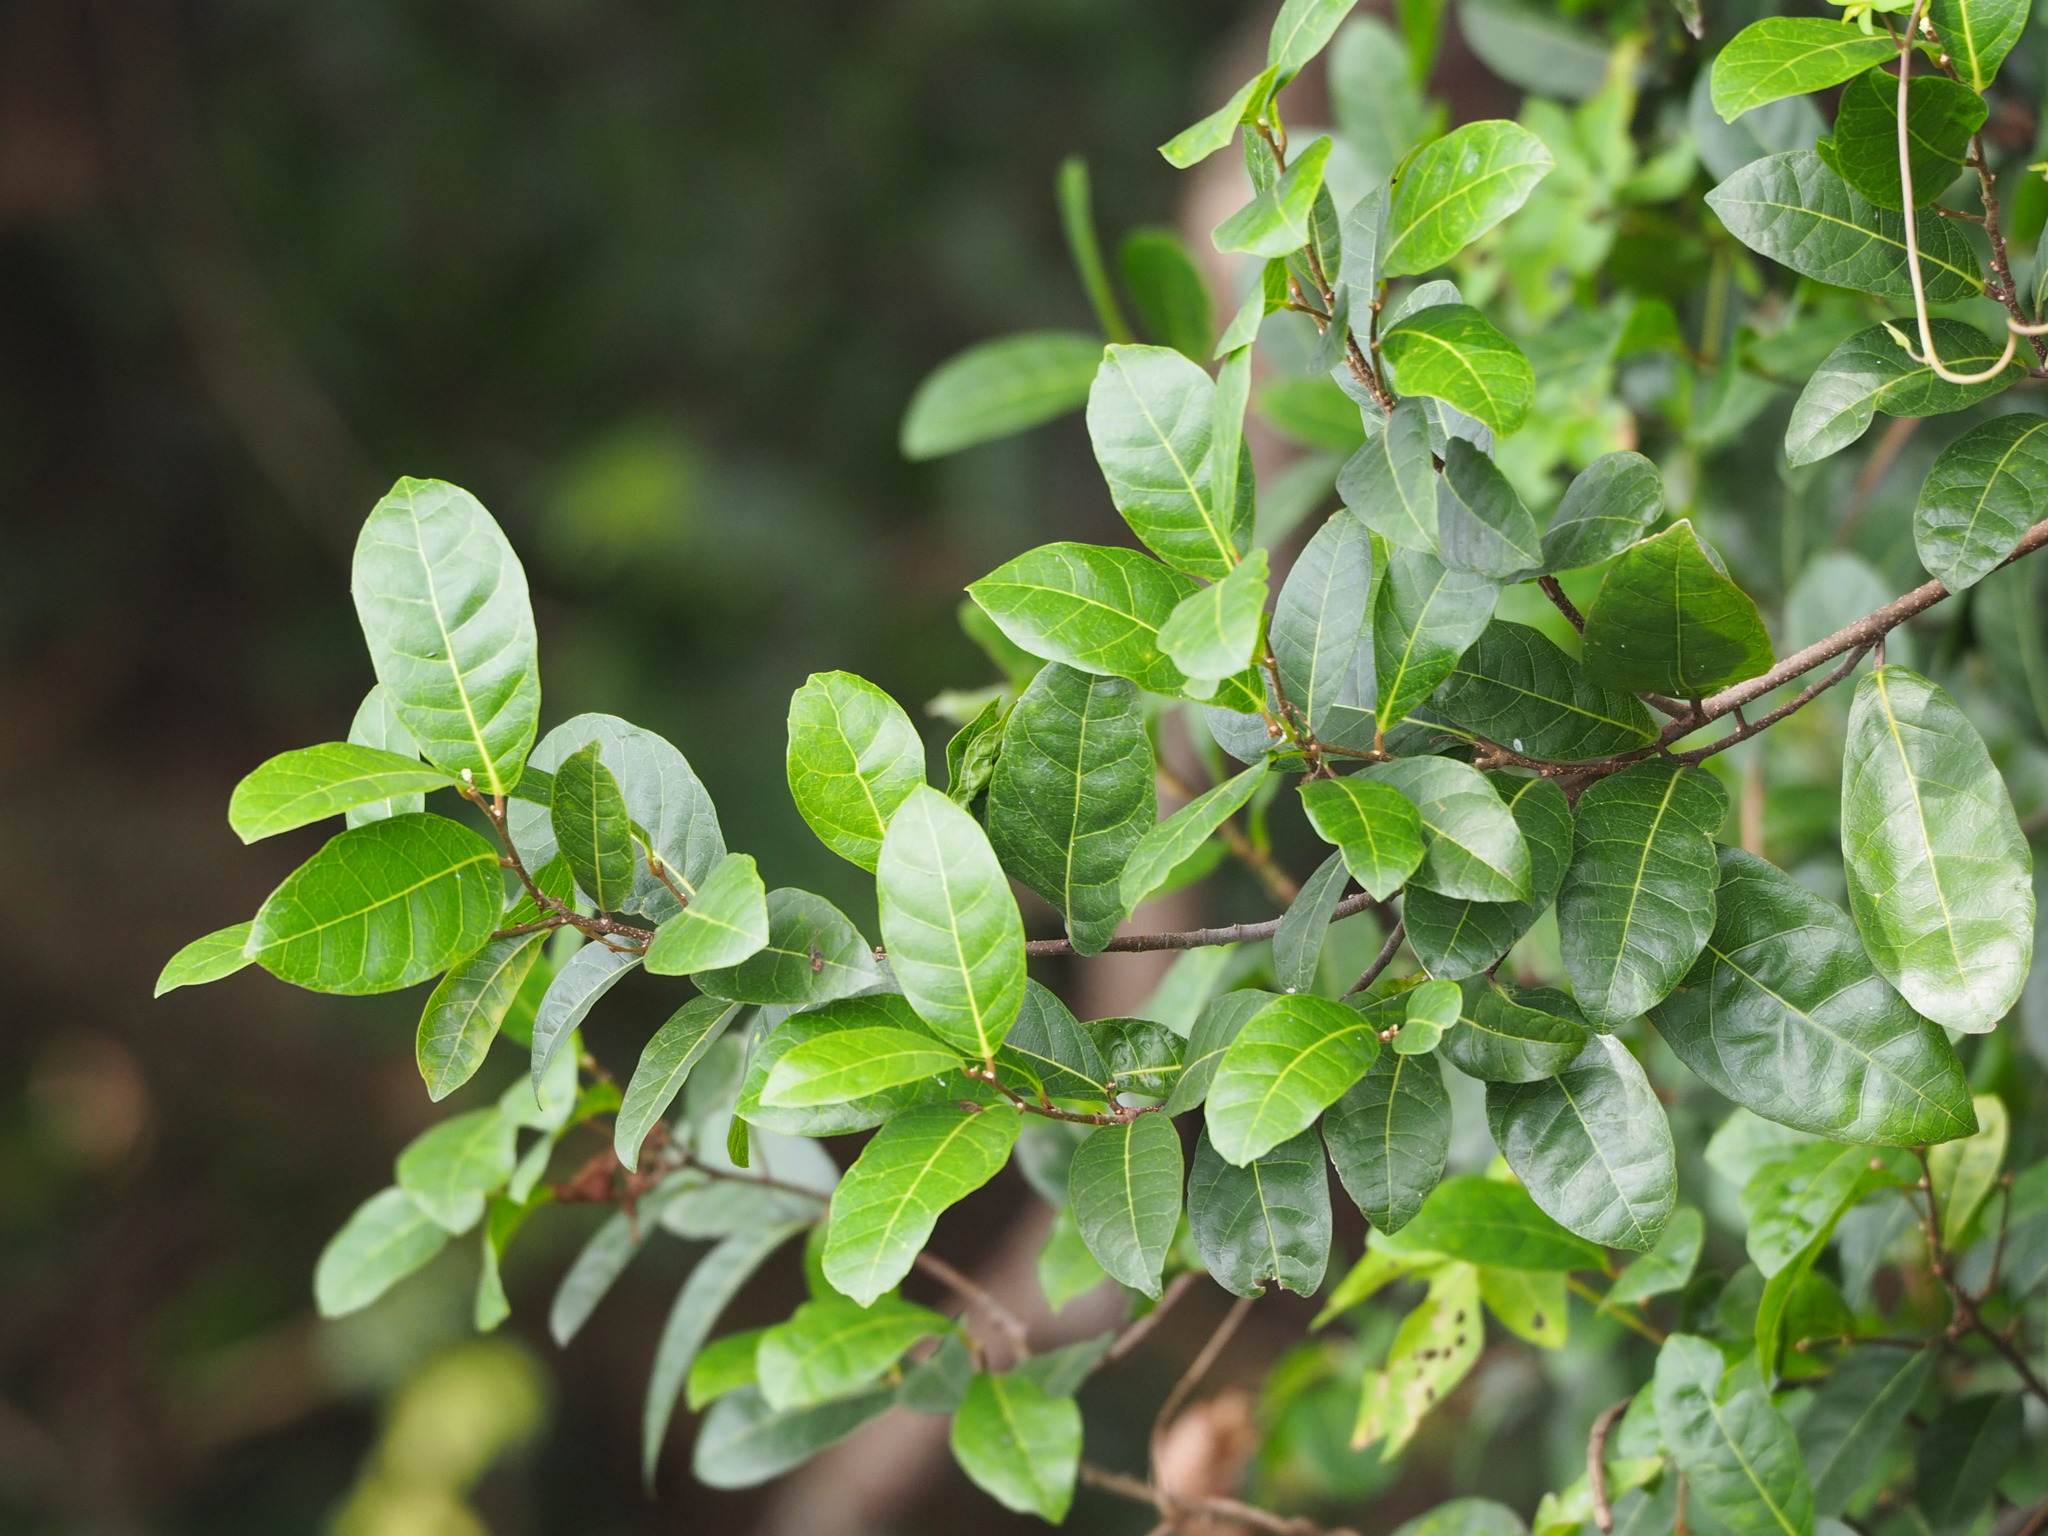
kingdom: Plantae
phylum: Tracheophyta
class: Magnoliopsida
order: Rosales
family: Moraceae
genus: Malaisia
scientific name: Malaisia scandens
